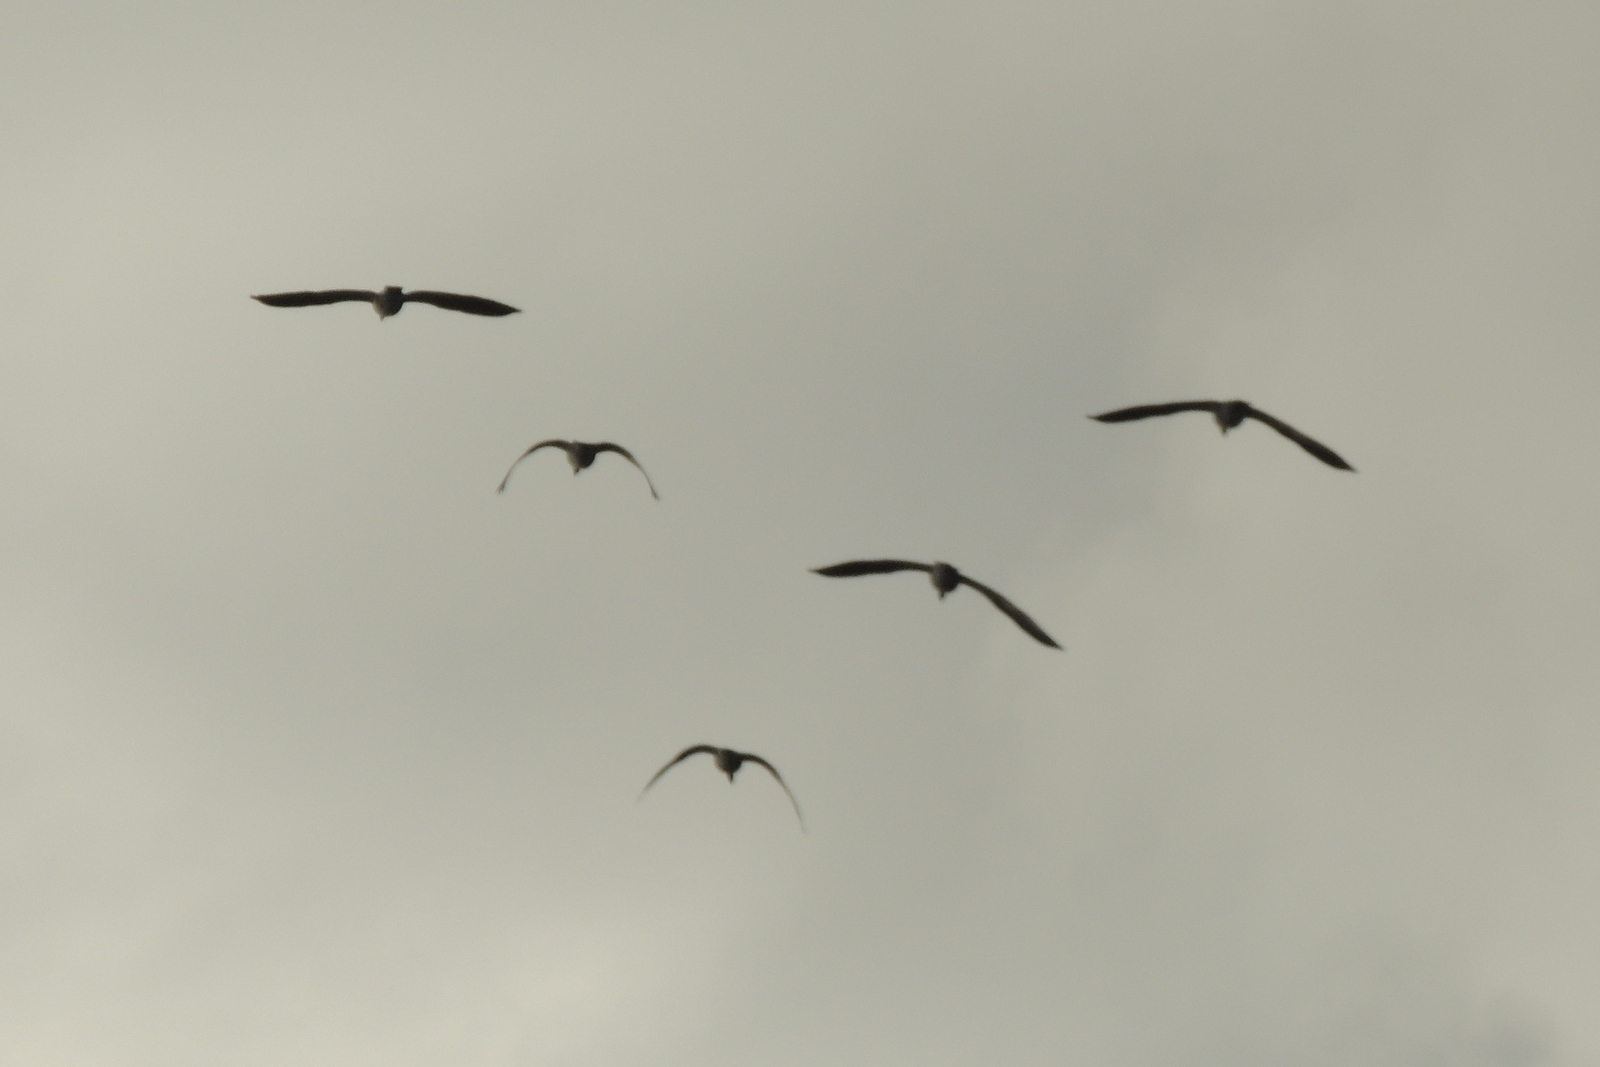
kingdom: Animalia
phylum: Chordata
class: Aves
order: Anseriformes
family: Anatidae
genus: Branta
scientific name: Branta canadensis
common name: Canada goose
